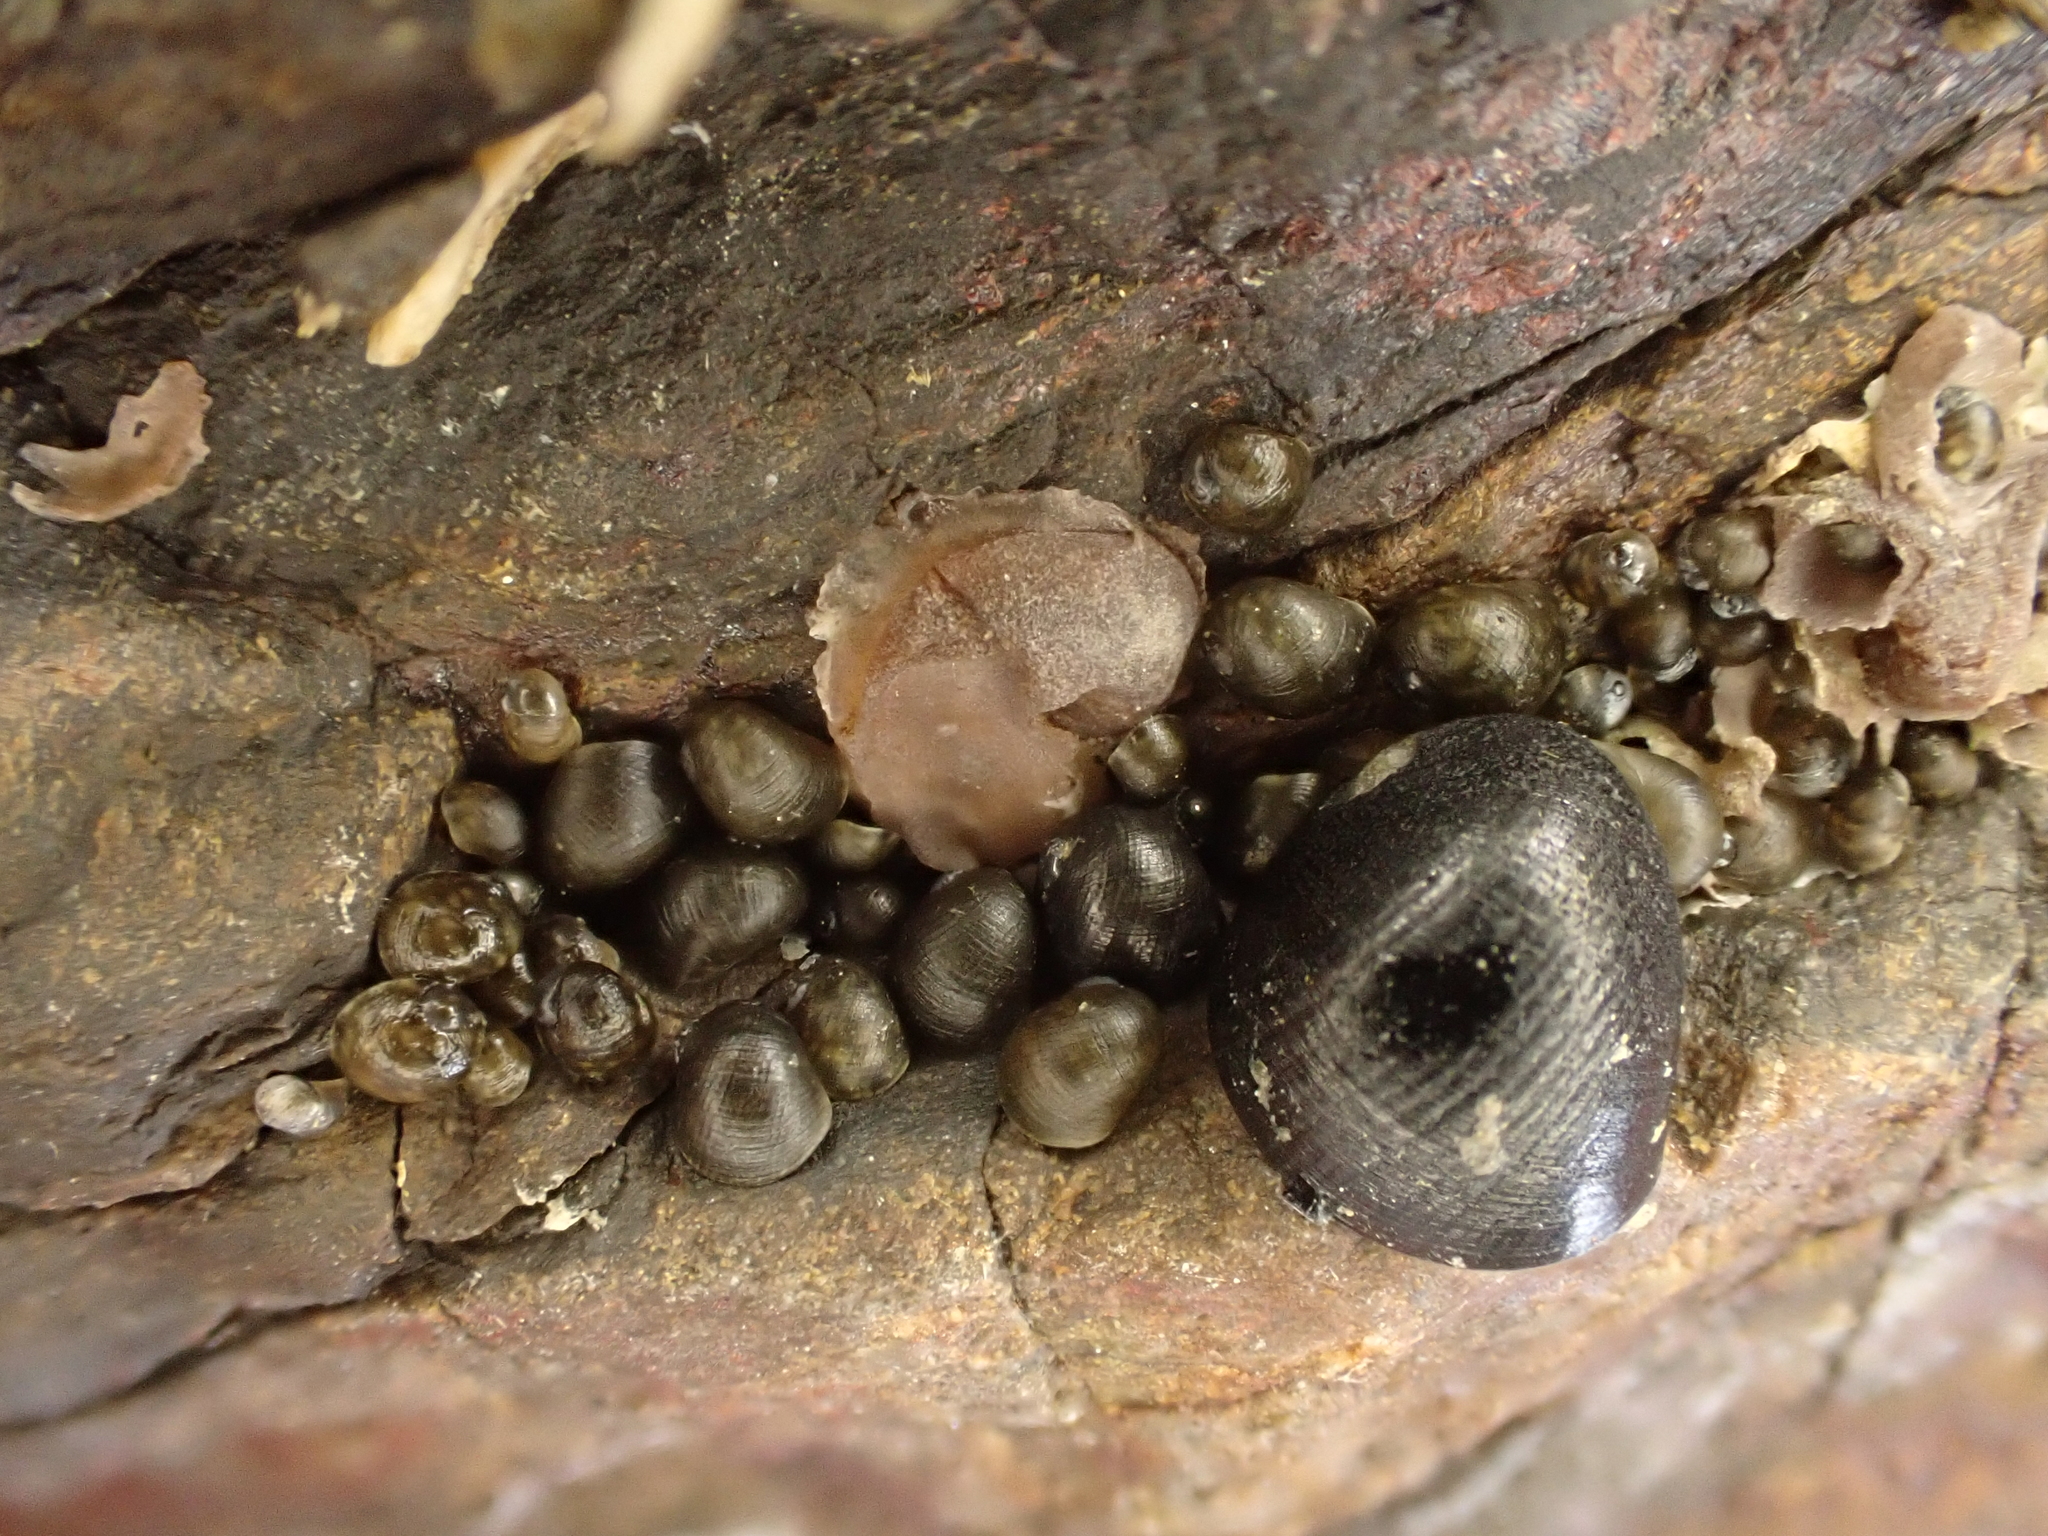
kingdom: Animalia
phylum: Mollusca
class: Gastropoda
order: Cycloneritida
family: Neritidae
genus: Nerita
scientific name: Nerita melanotragus
